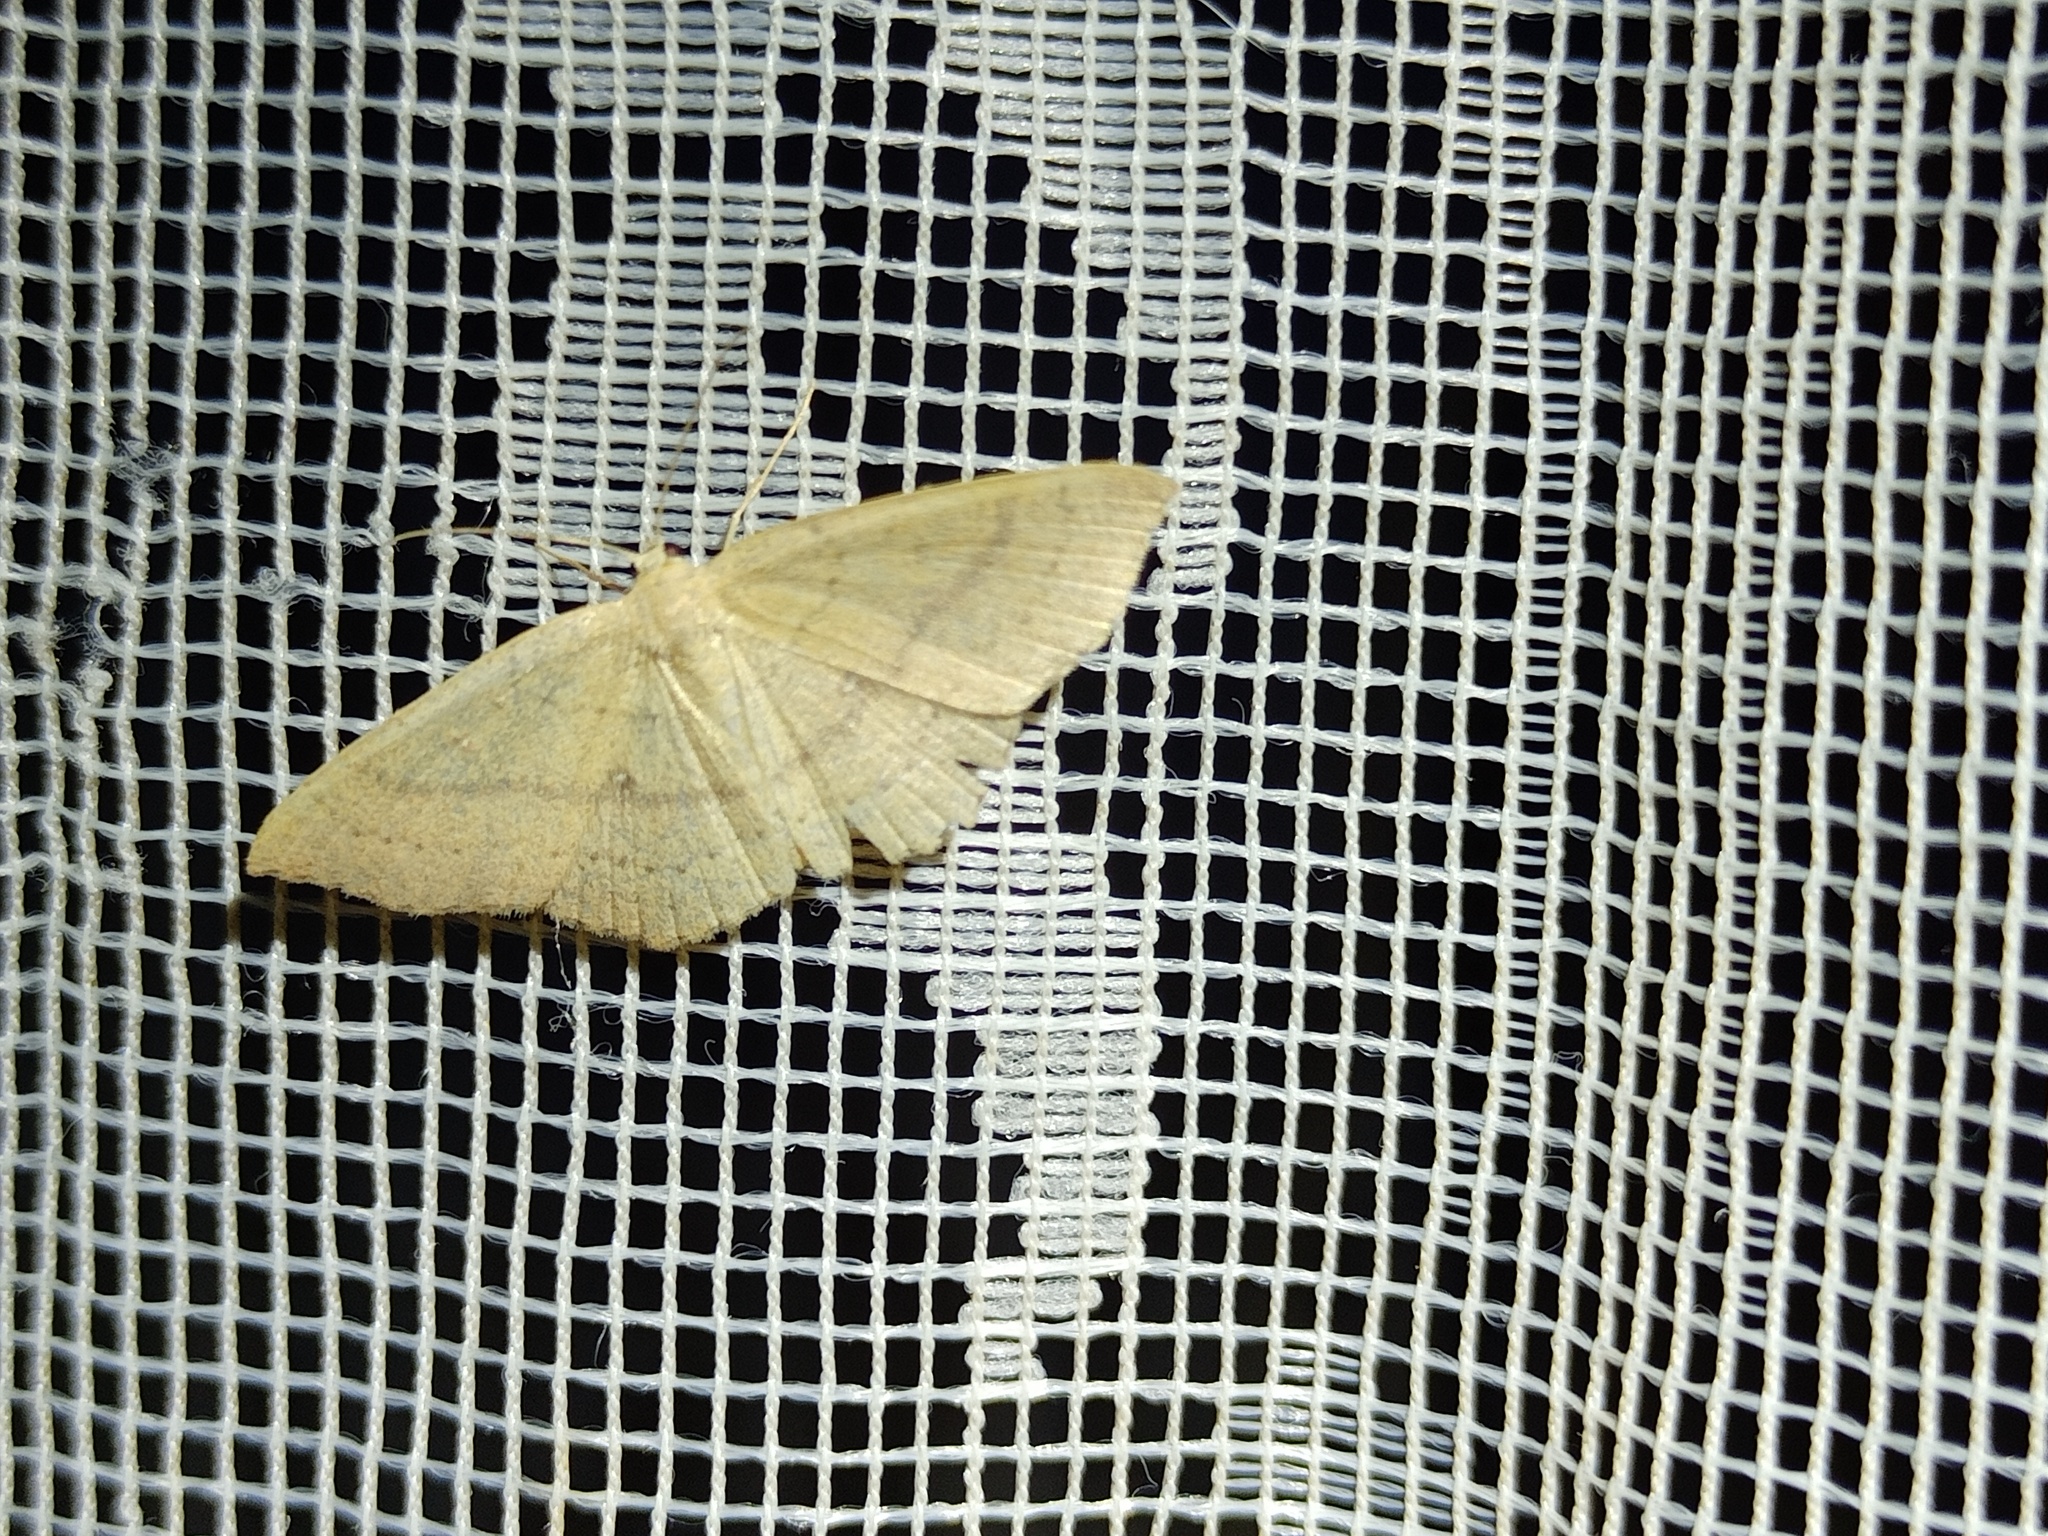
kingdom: Animalia
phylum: Arthropoda
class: Insecta
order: Lepidoptera
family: Geometridae
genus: Cyclophora
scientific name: Cyclophora linearia
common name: Clay triple-lines
